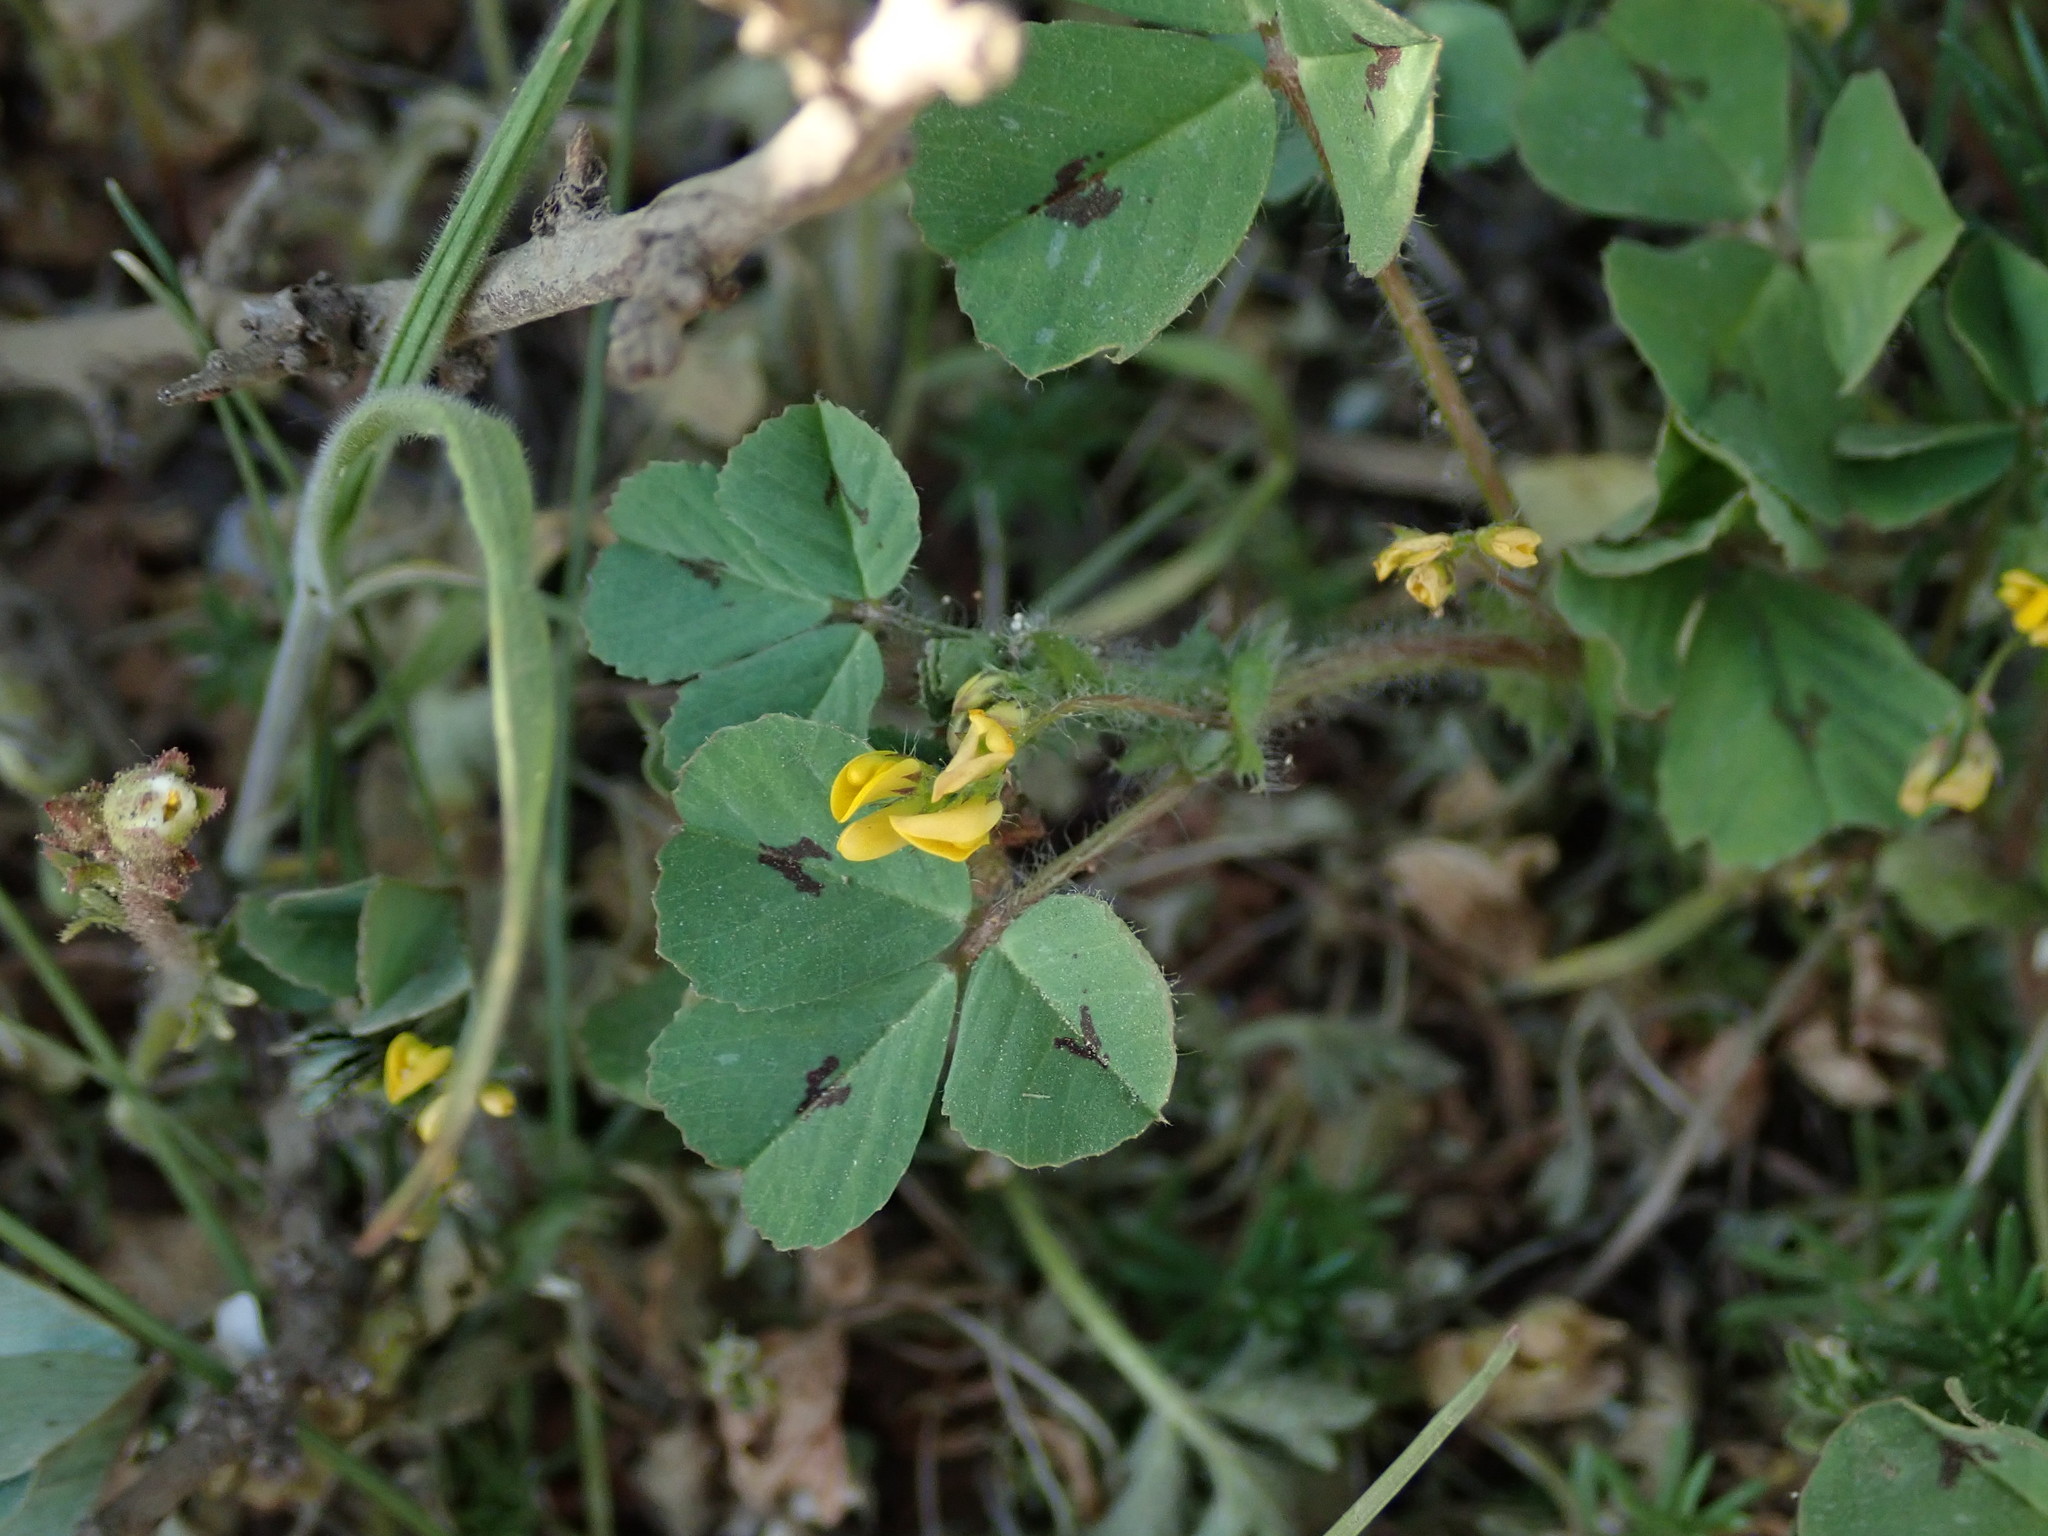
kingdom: Plantae
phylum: Tracheophyta
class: Magnoliopsida
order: Fabales
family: Fabaceae
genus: Medicago
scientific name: Medicago arabica
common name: Spotted medick
